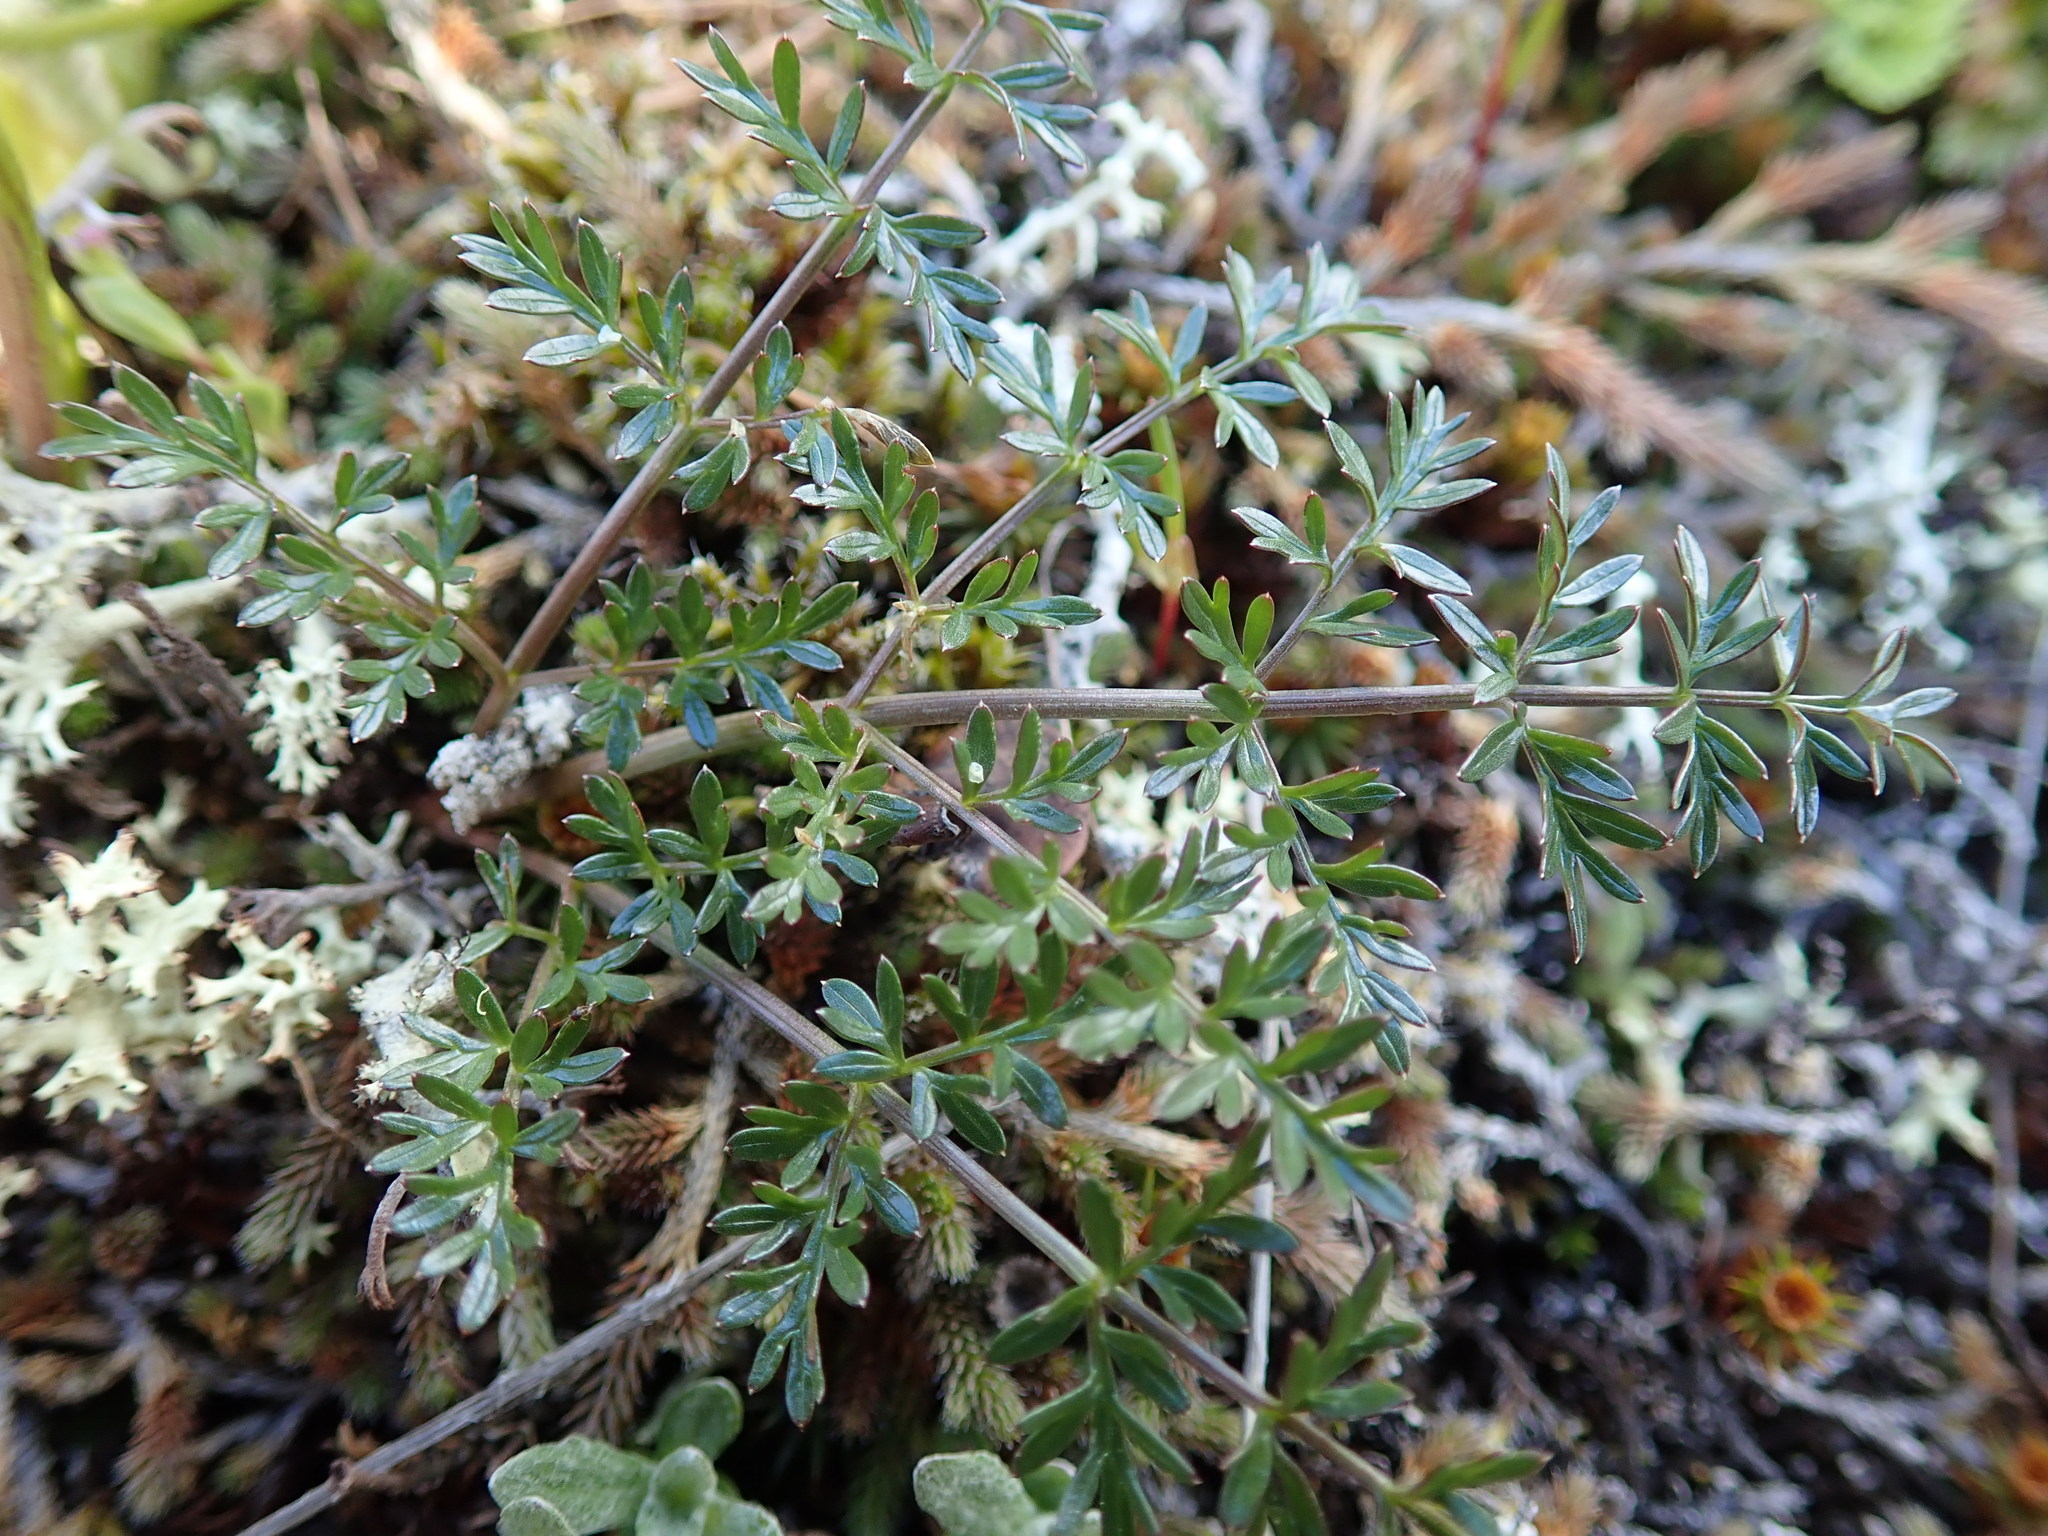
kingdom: Plantae
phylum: Tracheophyta
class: Magnoliopsida
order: Apiales
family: Apiaceae
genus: Lomatium
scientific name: Lomatium utriculatum
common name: Fine-leaf desert-parsley
